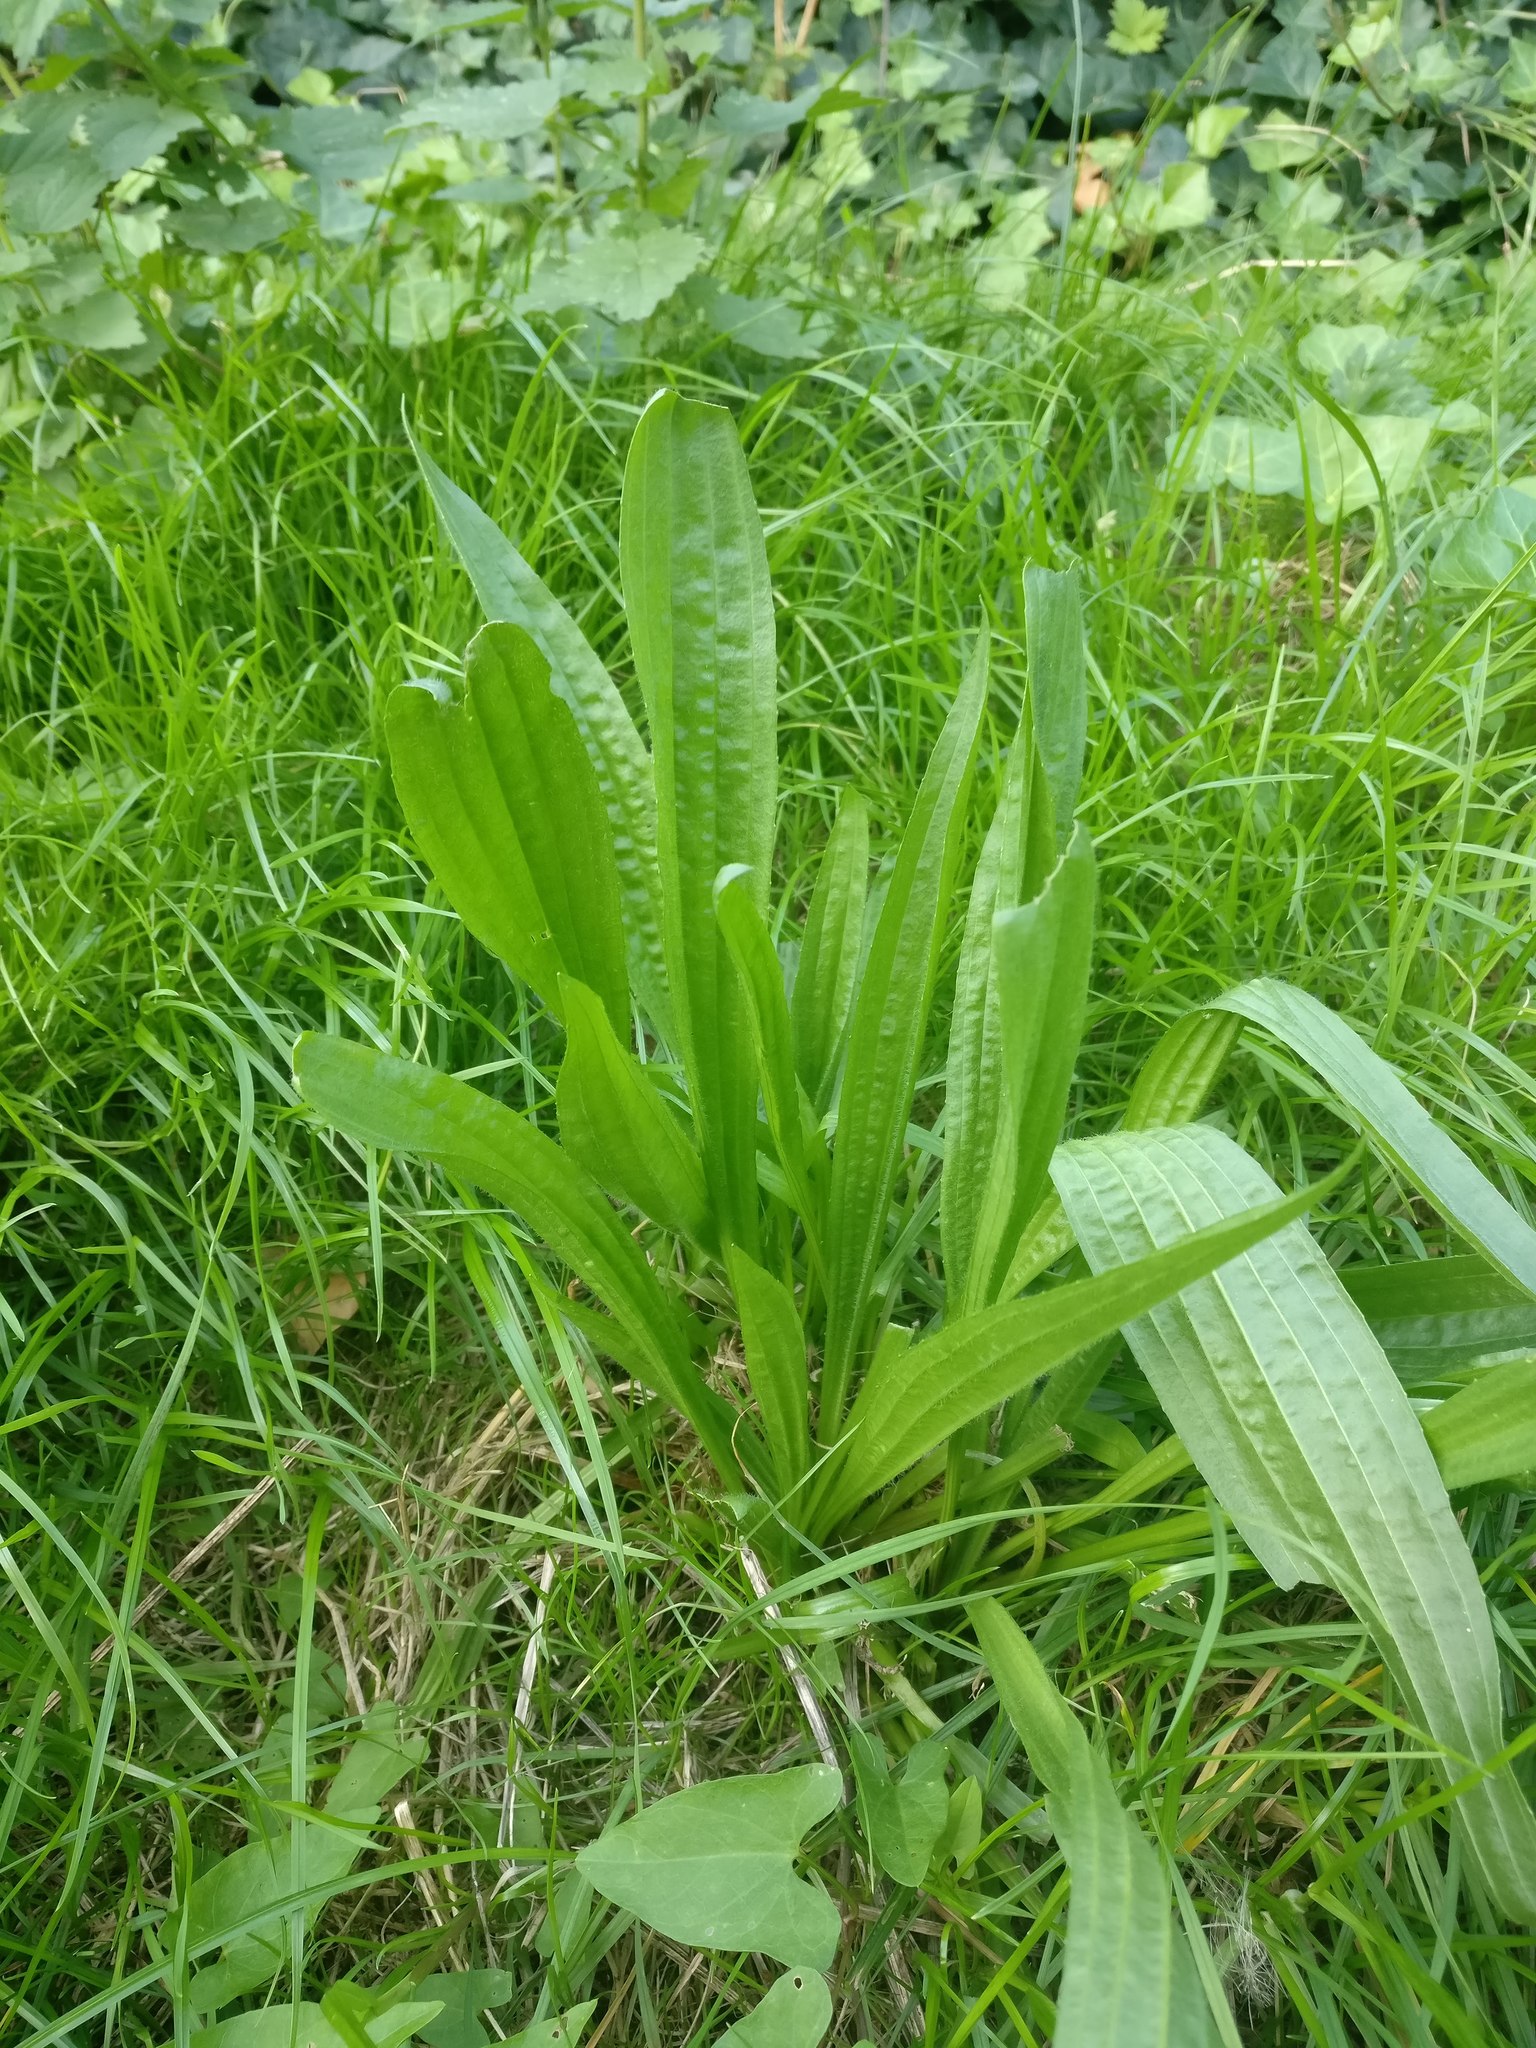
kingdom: Plantae
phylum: Tracheophyta
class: Magnoliopsida
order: Lamiales
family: Plantaginaceae
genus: Plantago
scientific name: Plantago lanceolata
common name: Ribwort plantain
